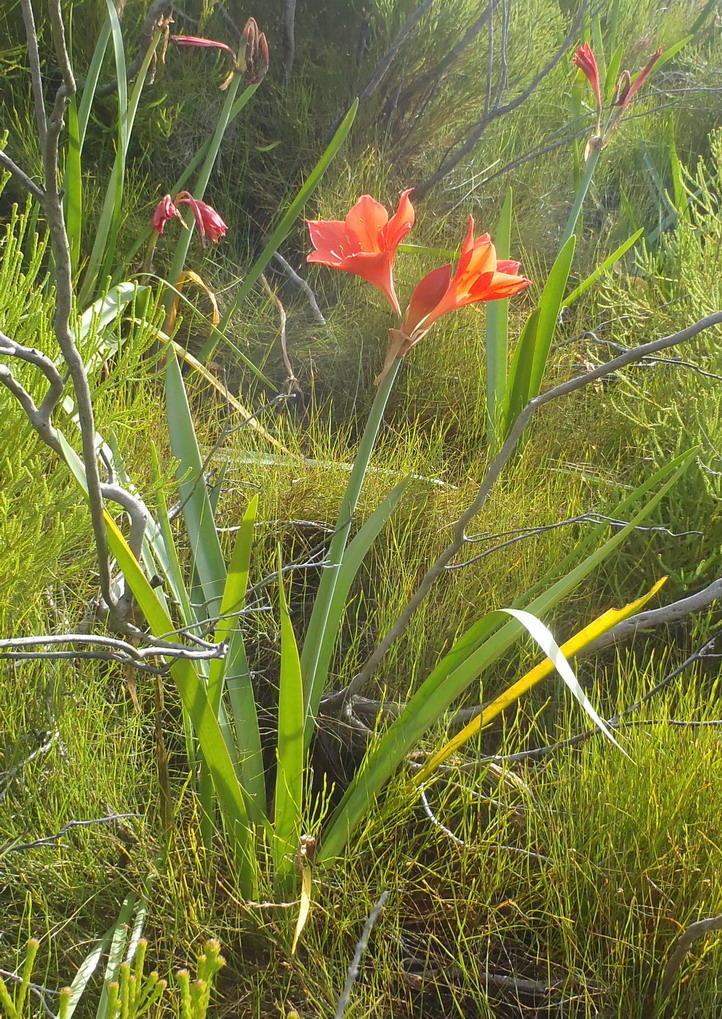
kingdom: Plantae
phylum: Tracheophyta
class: Liliopsida
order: Asparagales
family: Amaryllidaceae
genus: Cyrtanthus
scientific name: Cyrtanthus elatus
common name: Scarborough-lily
